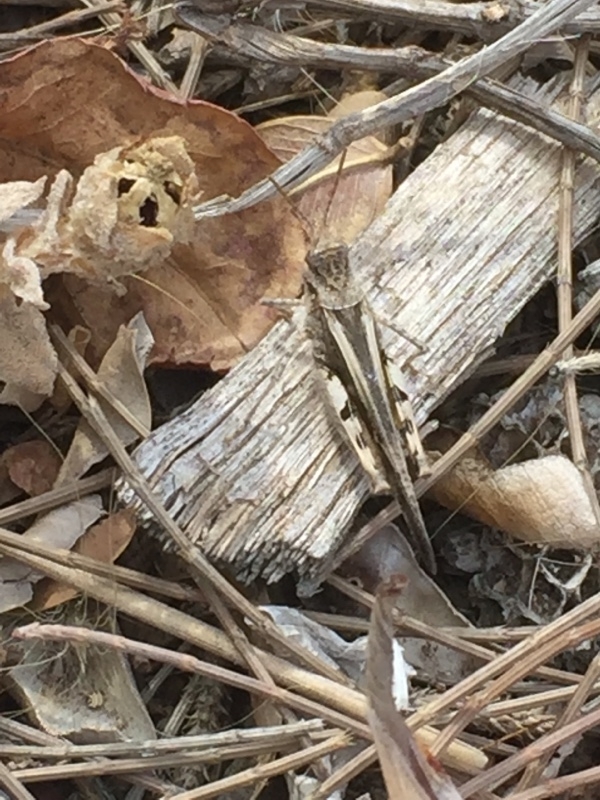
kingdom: Animalia
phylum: Arthropoda
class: Insecta
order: Orthoptera
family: Acrididae
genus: Acrotylus
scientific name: Acrotylus insubricus
